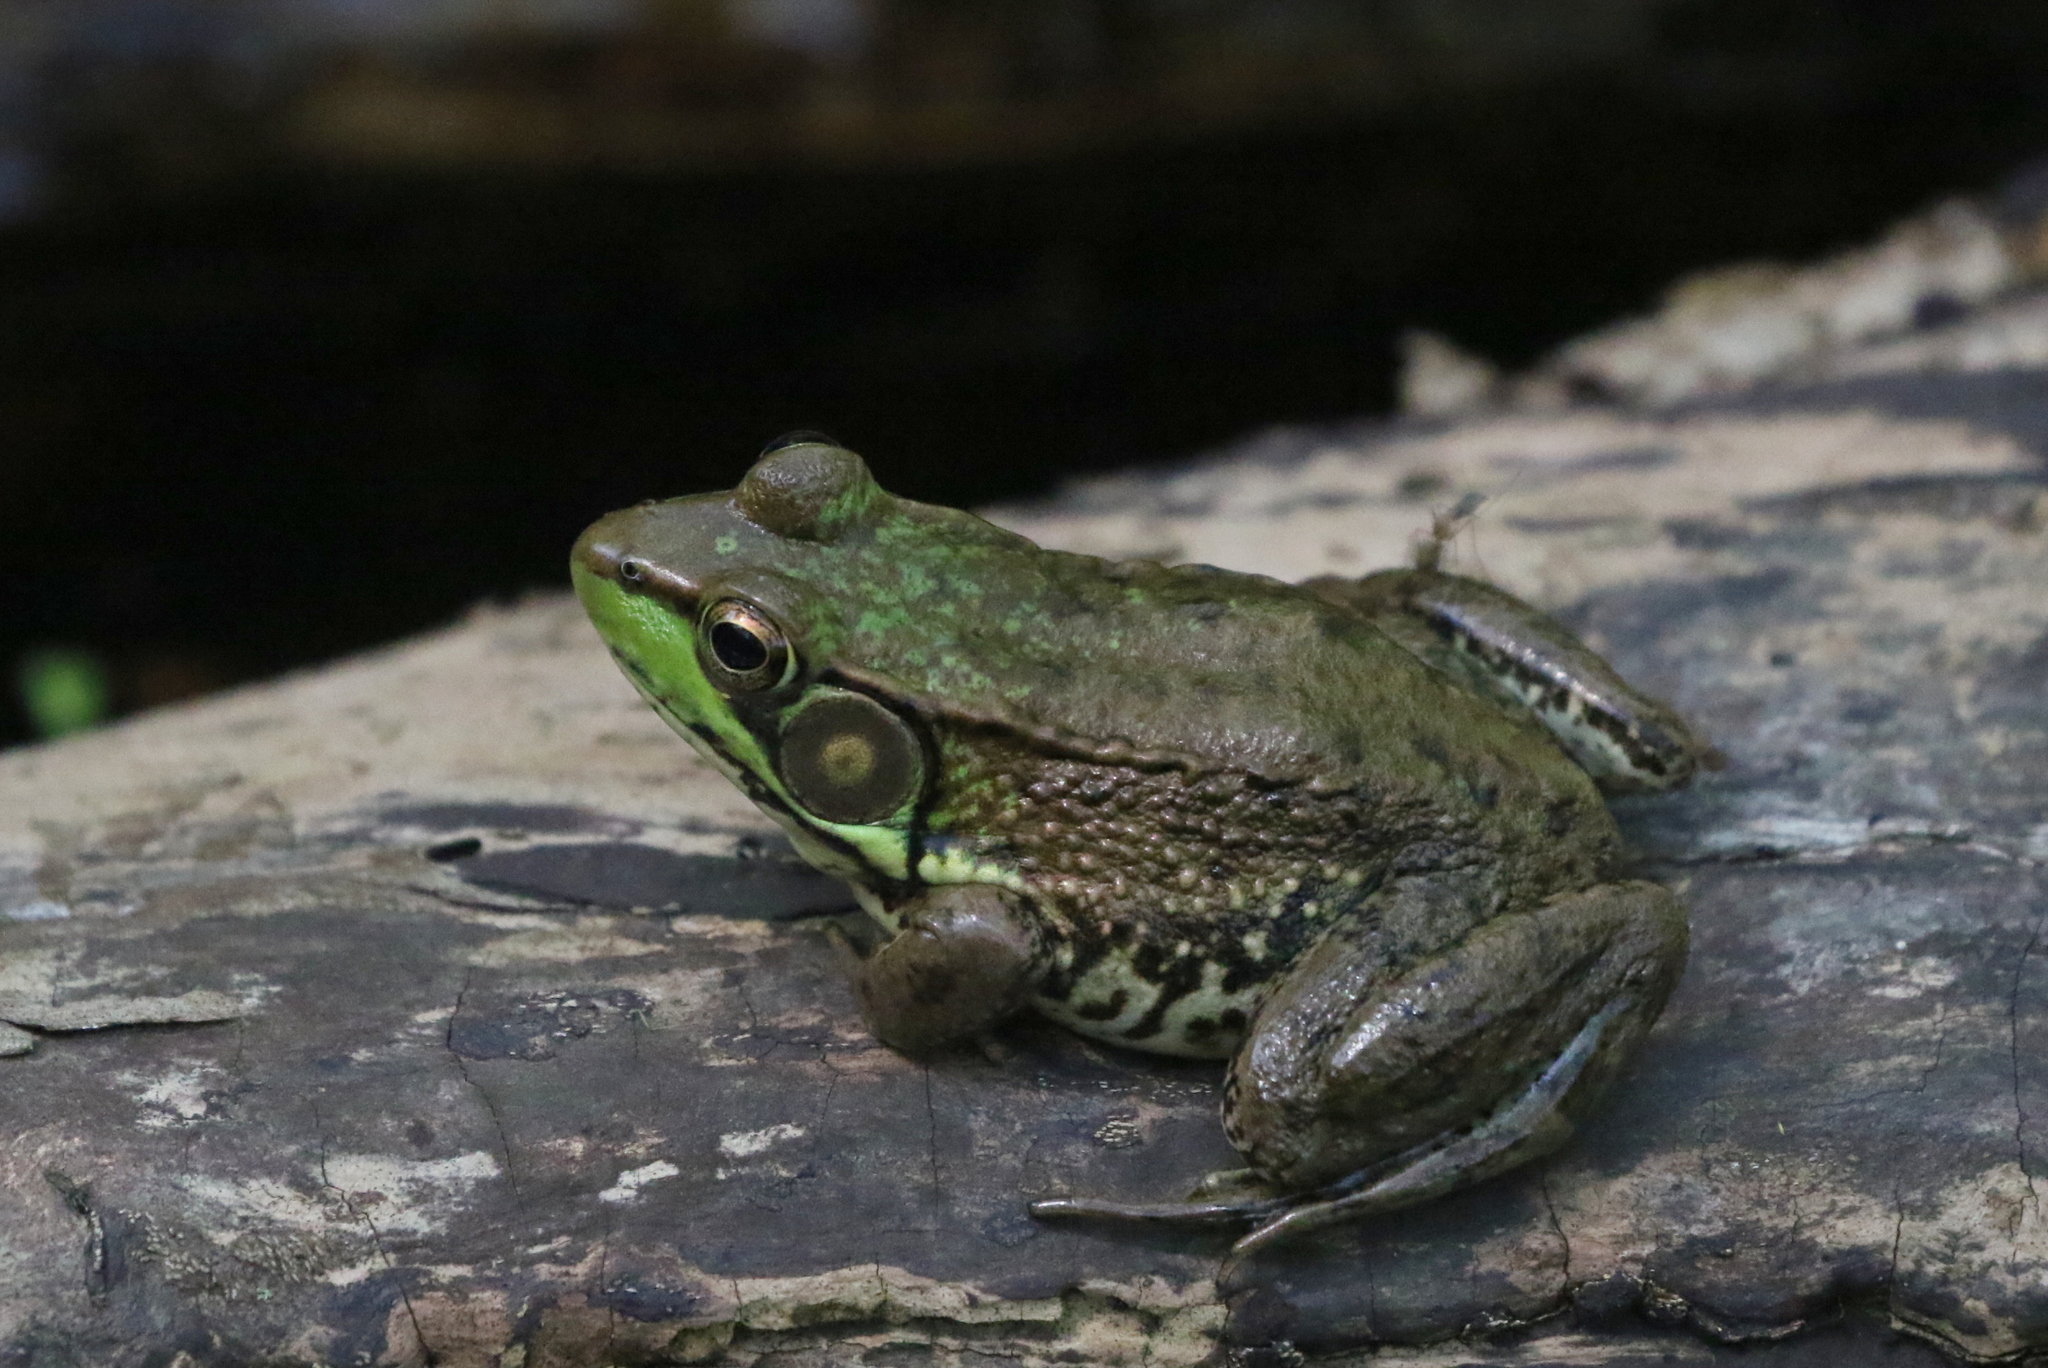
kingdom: Animalia
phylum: Chordata
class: Amphibia
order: Anura
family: Ranidae
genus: Lithobates
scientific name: Lithobates clamitans
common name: Green frog
